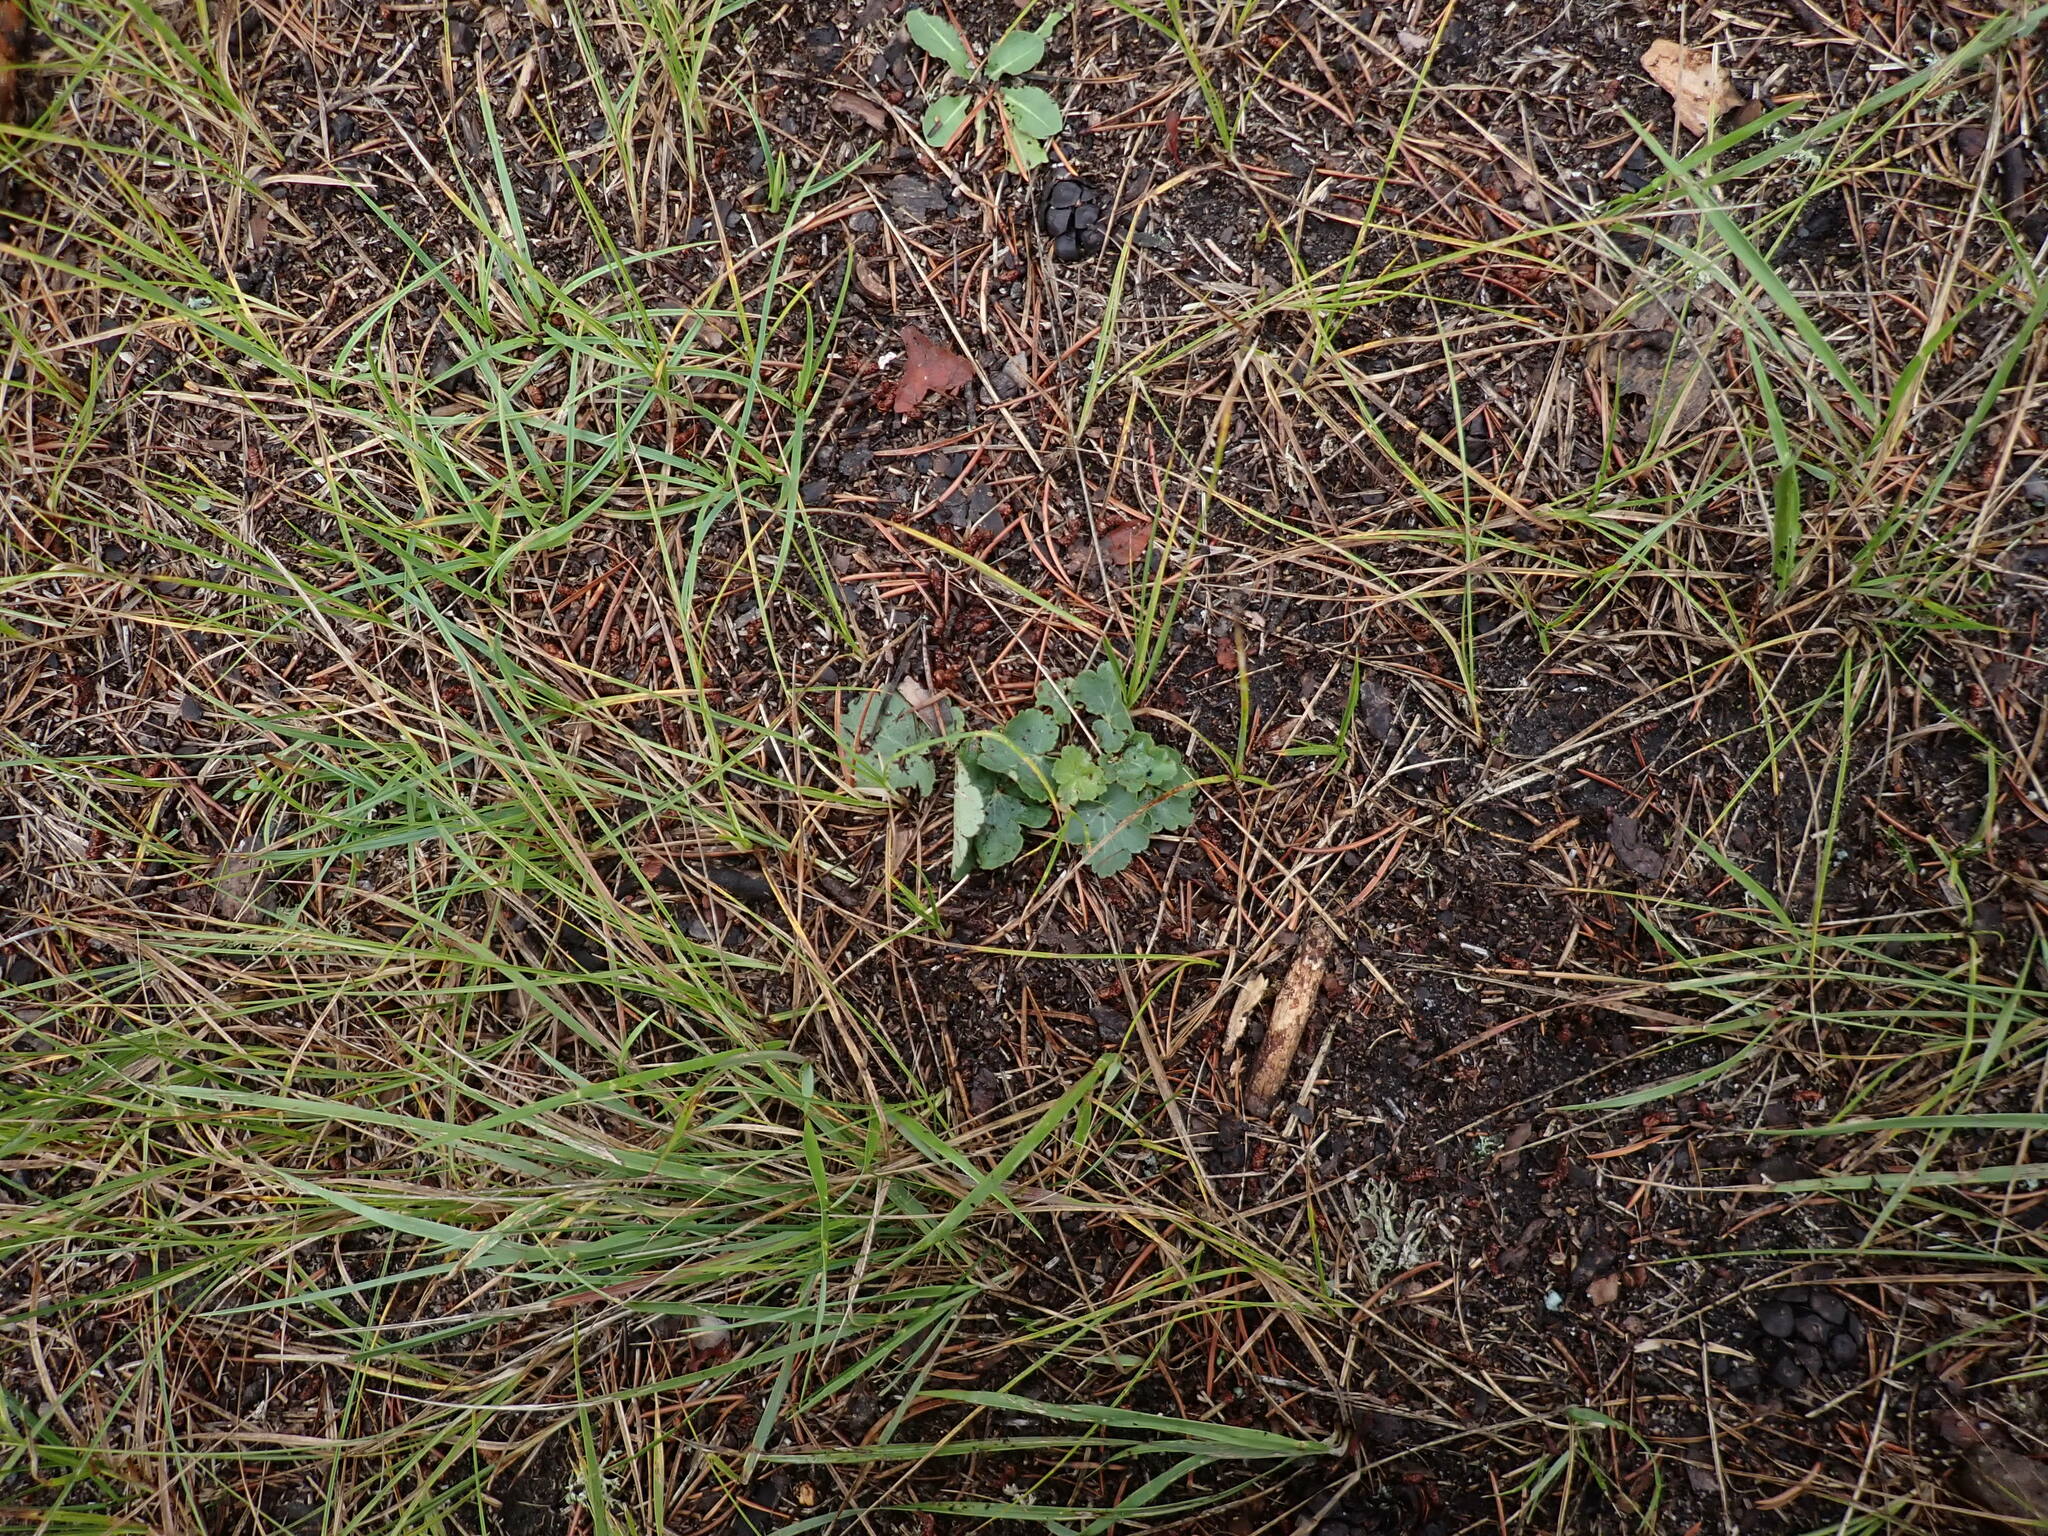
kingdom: Plantae
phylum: Tracheophyta
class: Magnoliopsida
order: Saxifragales
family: Saxifragaceae
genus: Heuchera
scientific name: Heuchera richardsonii
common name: Richardson's alumroot
